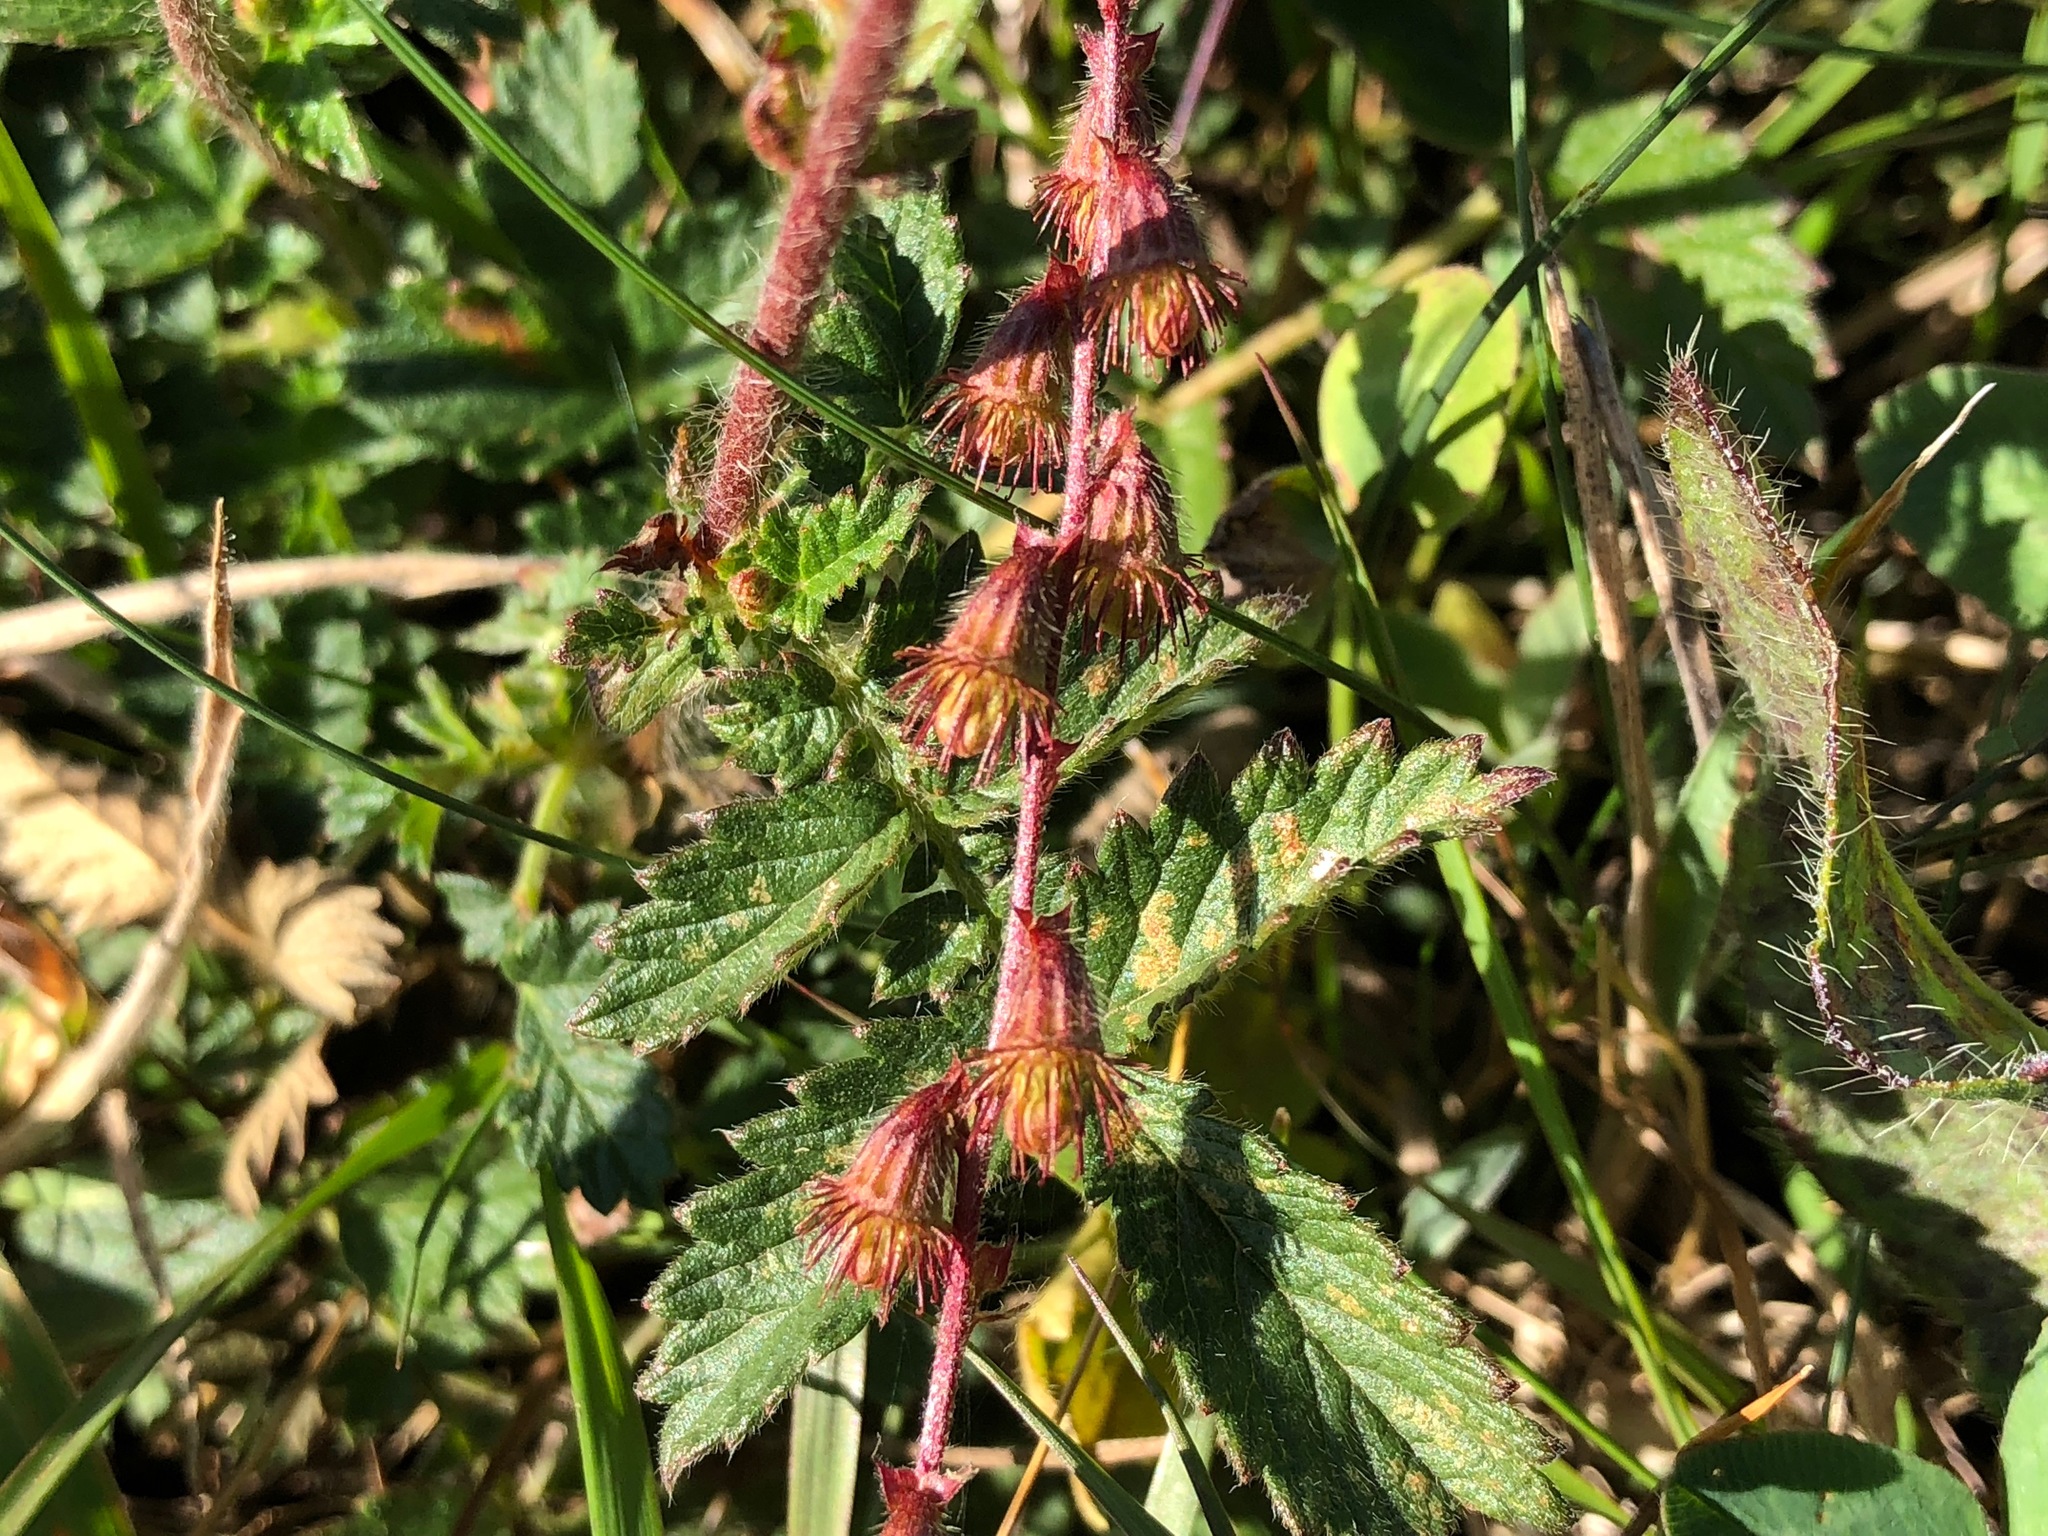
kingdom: Plantae
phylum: Tracheophyta
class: Magnoliopsida
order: Rosales
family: Rosaceae
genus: Agrimonia
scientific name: Agrimonia eupatoria
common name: Agrimony
